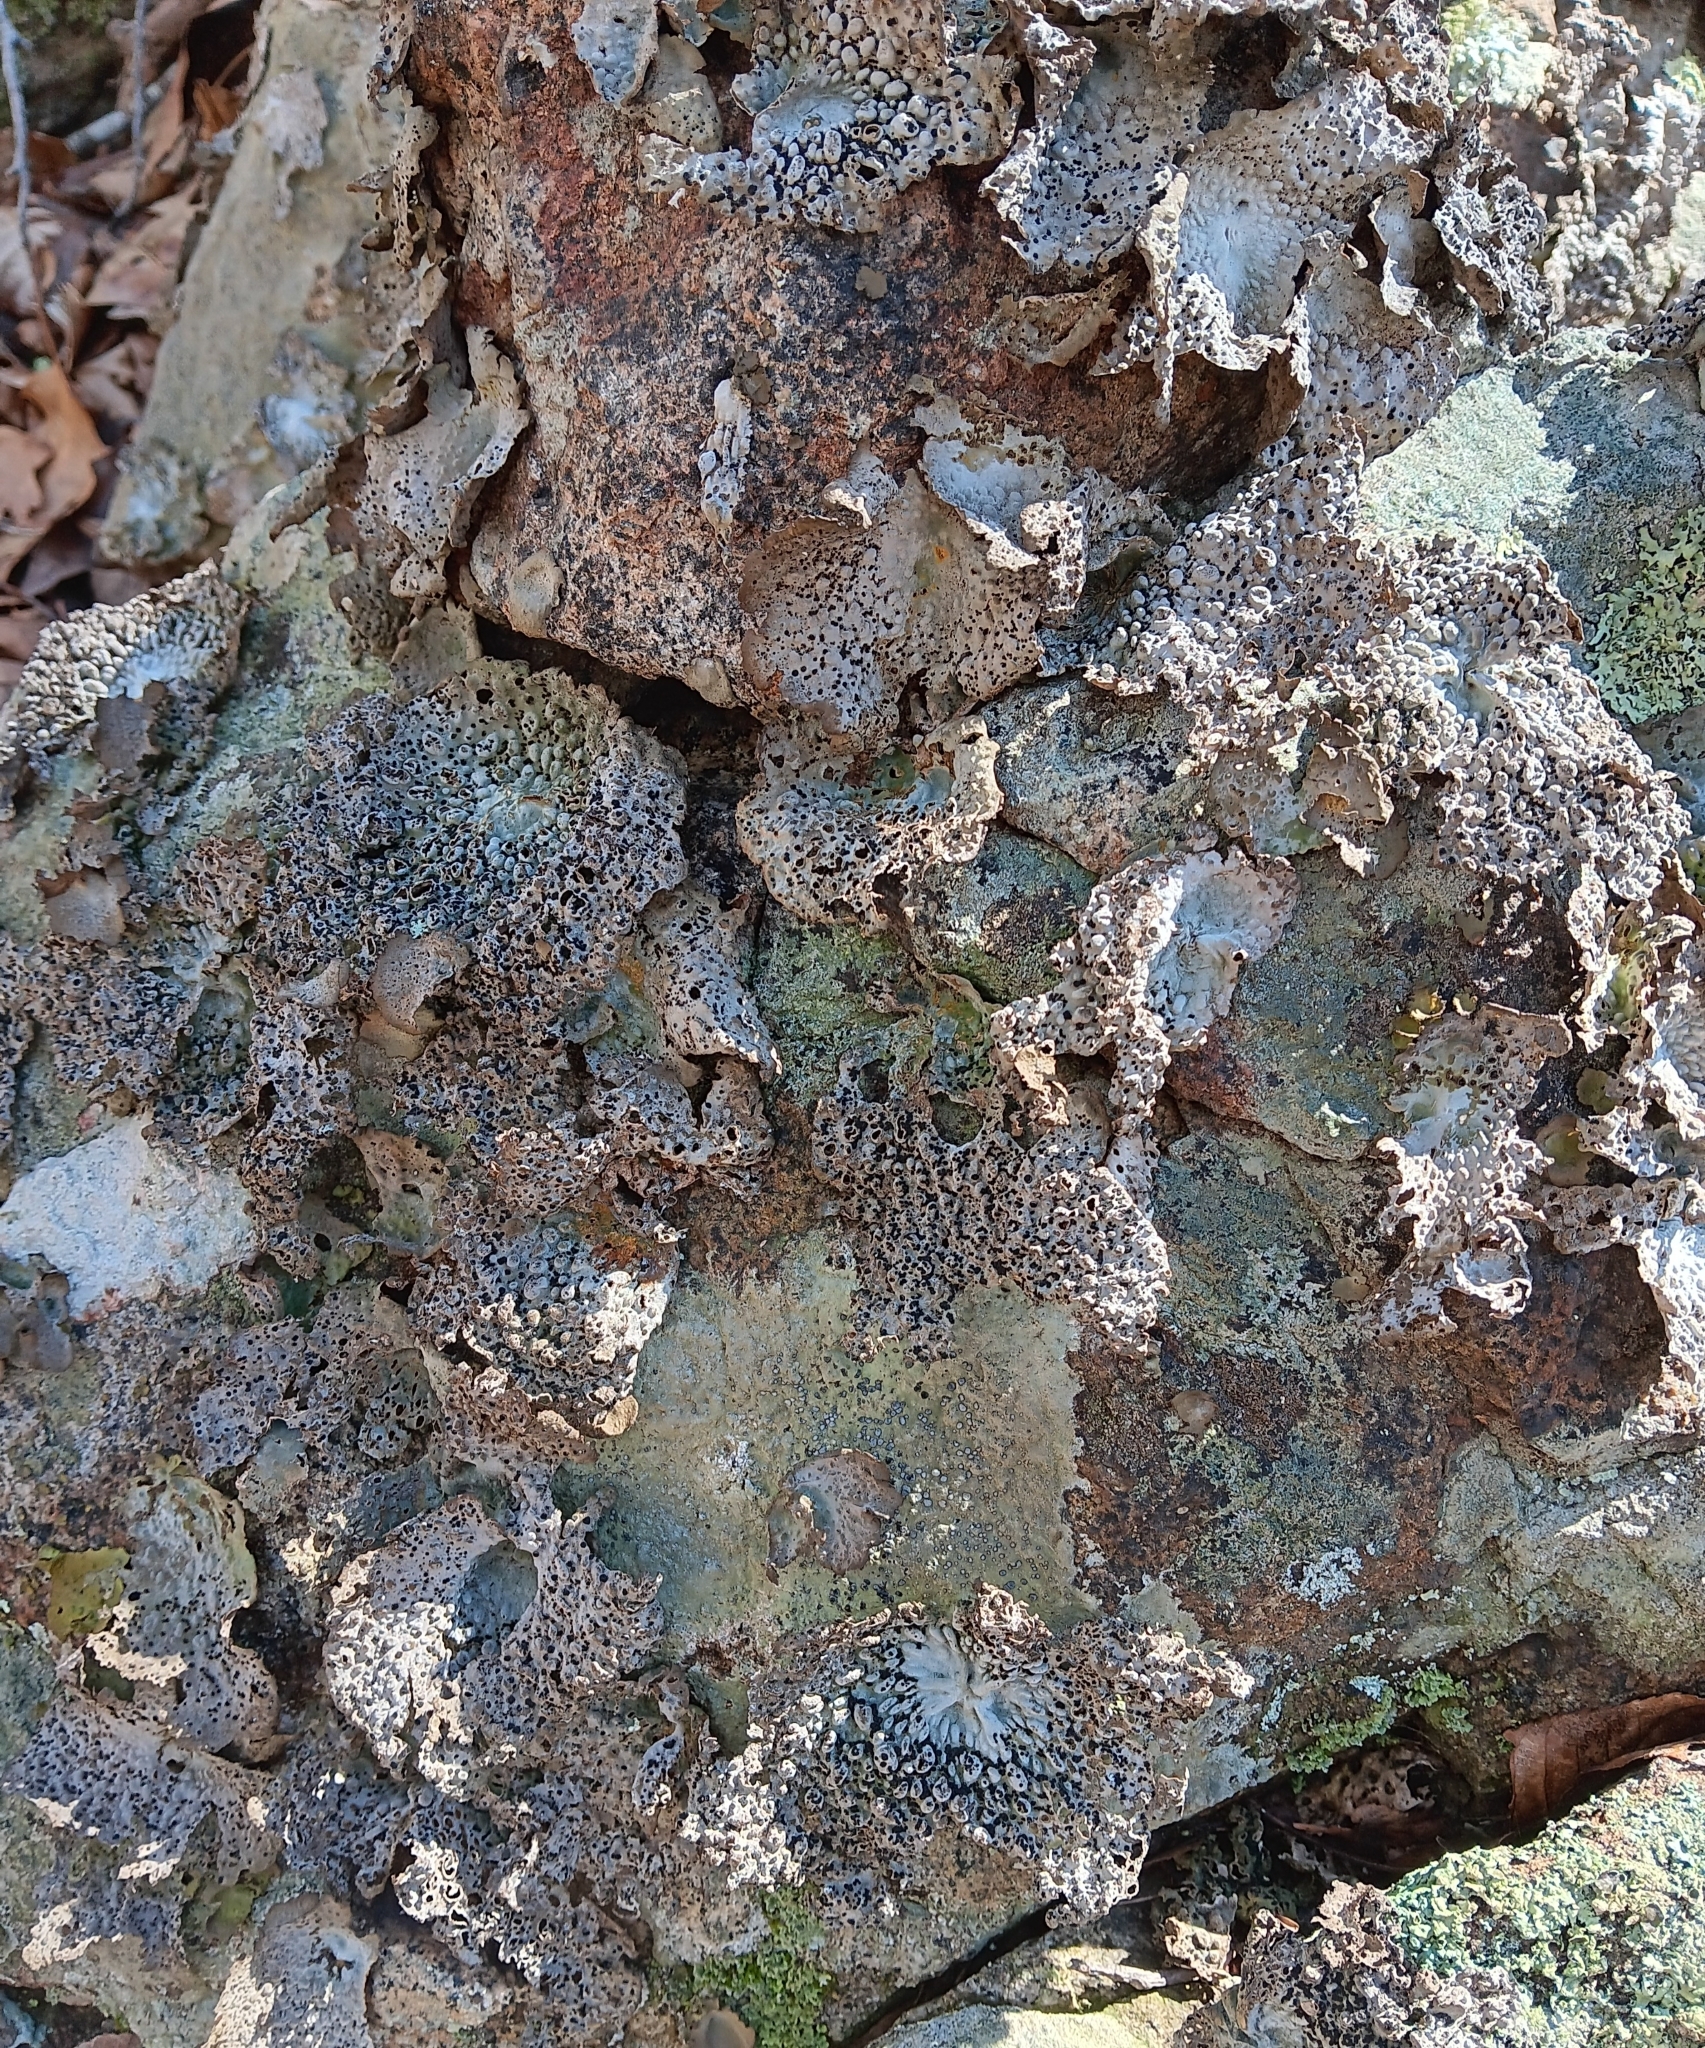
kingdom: Fungi
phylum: Ascomycota
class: Lecanoromycetes
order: Umbilicariales
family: Umbilicariaceae
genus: Lasallia
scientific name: Lasallia papulosa
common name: Common toadskin lichen
